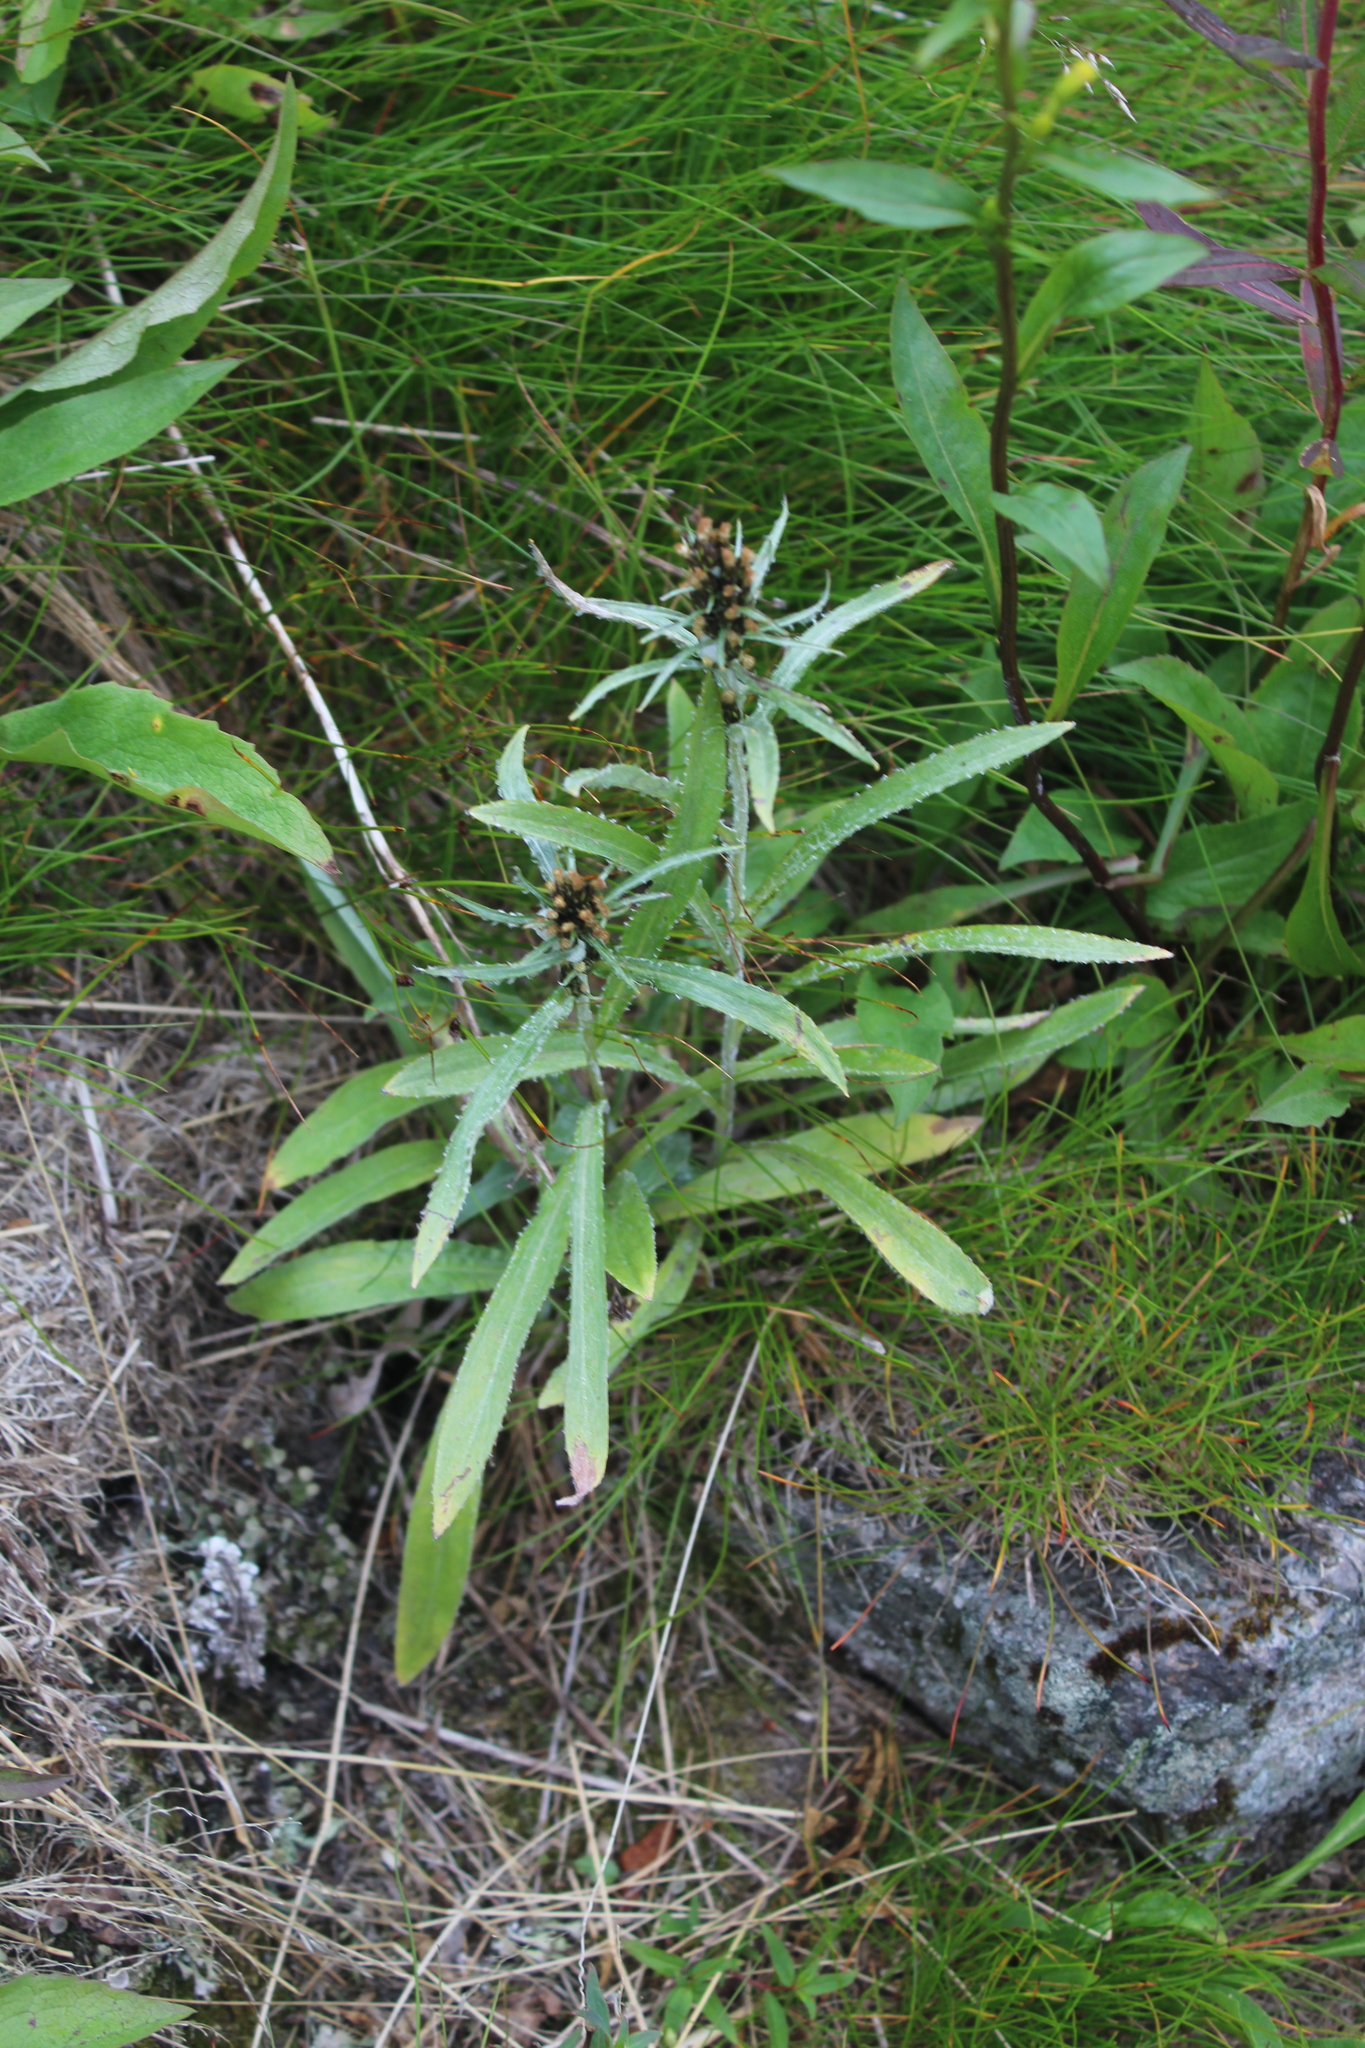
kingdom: Plantae
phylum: Tracheophyta
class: Magnoliopsida
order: Asterales
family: Asteraceae
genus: Omalotheca
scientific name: Omalotheca norvegica
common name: Norwegian arctic-cudweed
